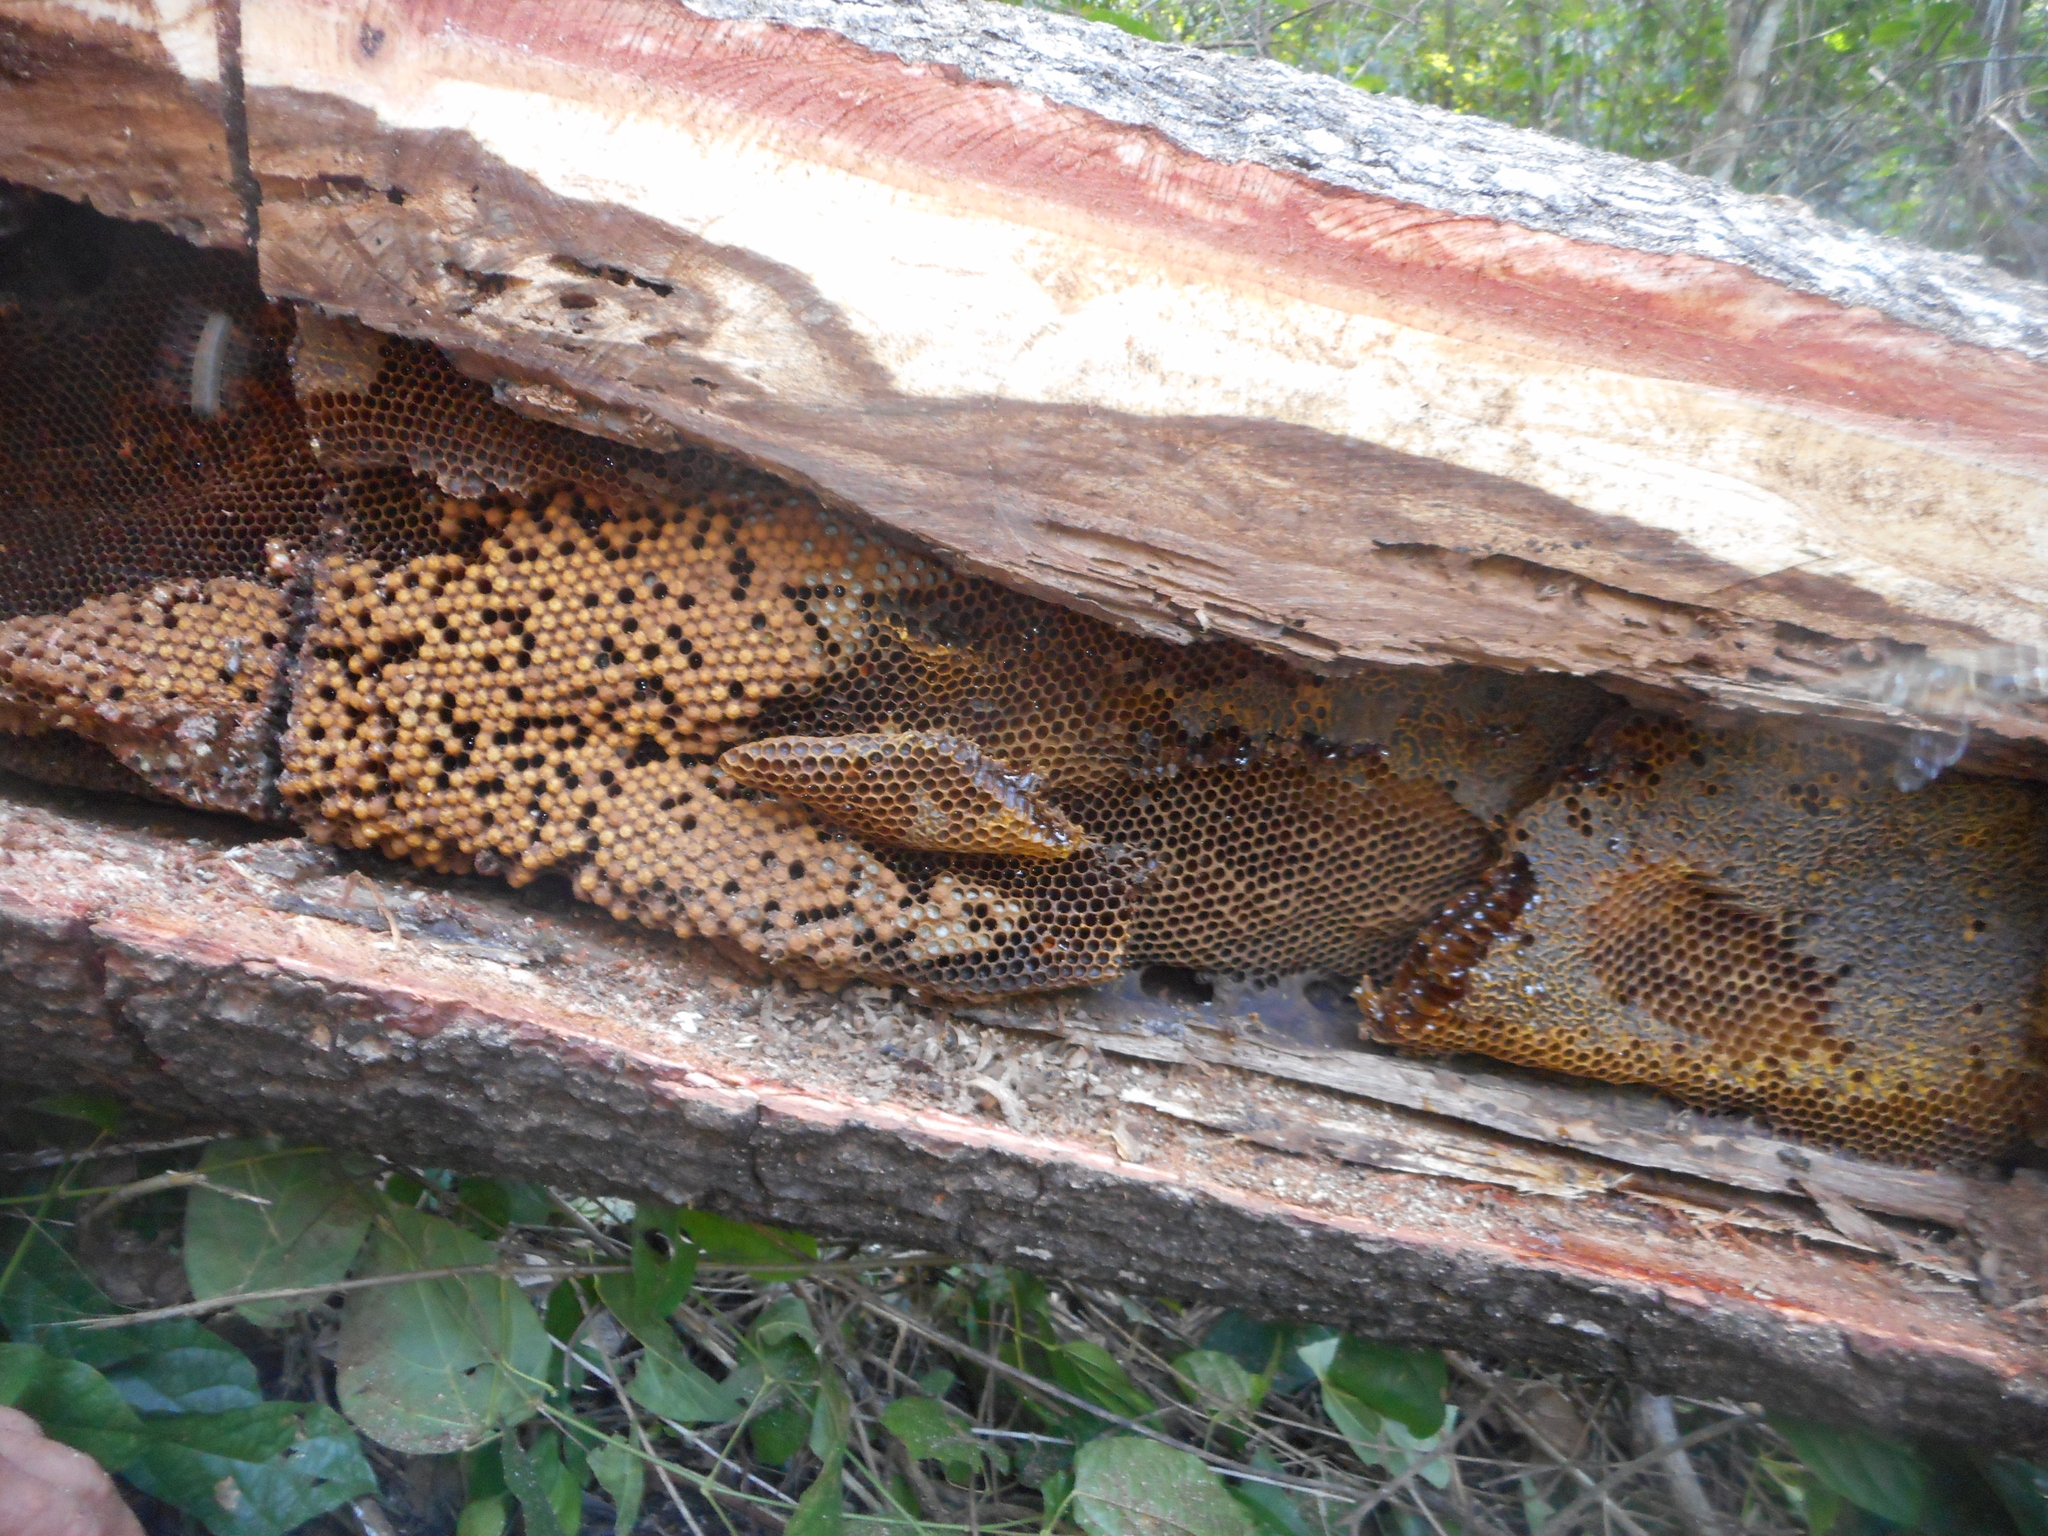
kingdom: Animalia
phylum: Arthropoda
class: Insecta
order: Hymenoptera
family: Apidae
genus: Apis
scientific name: Apis mellifera
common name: Honey bee
